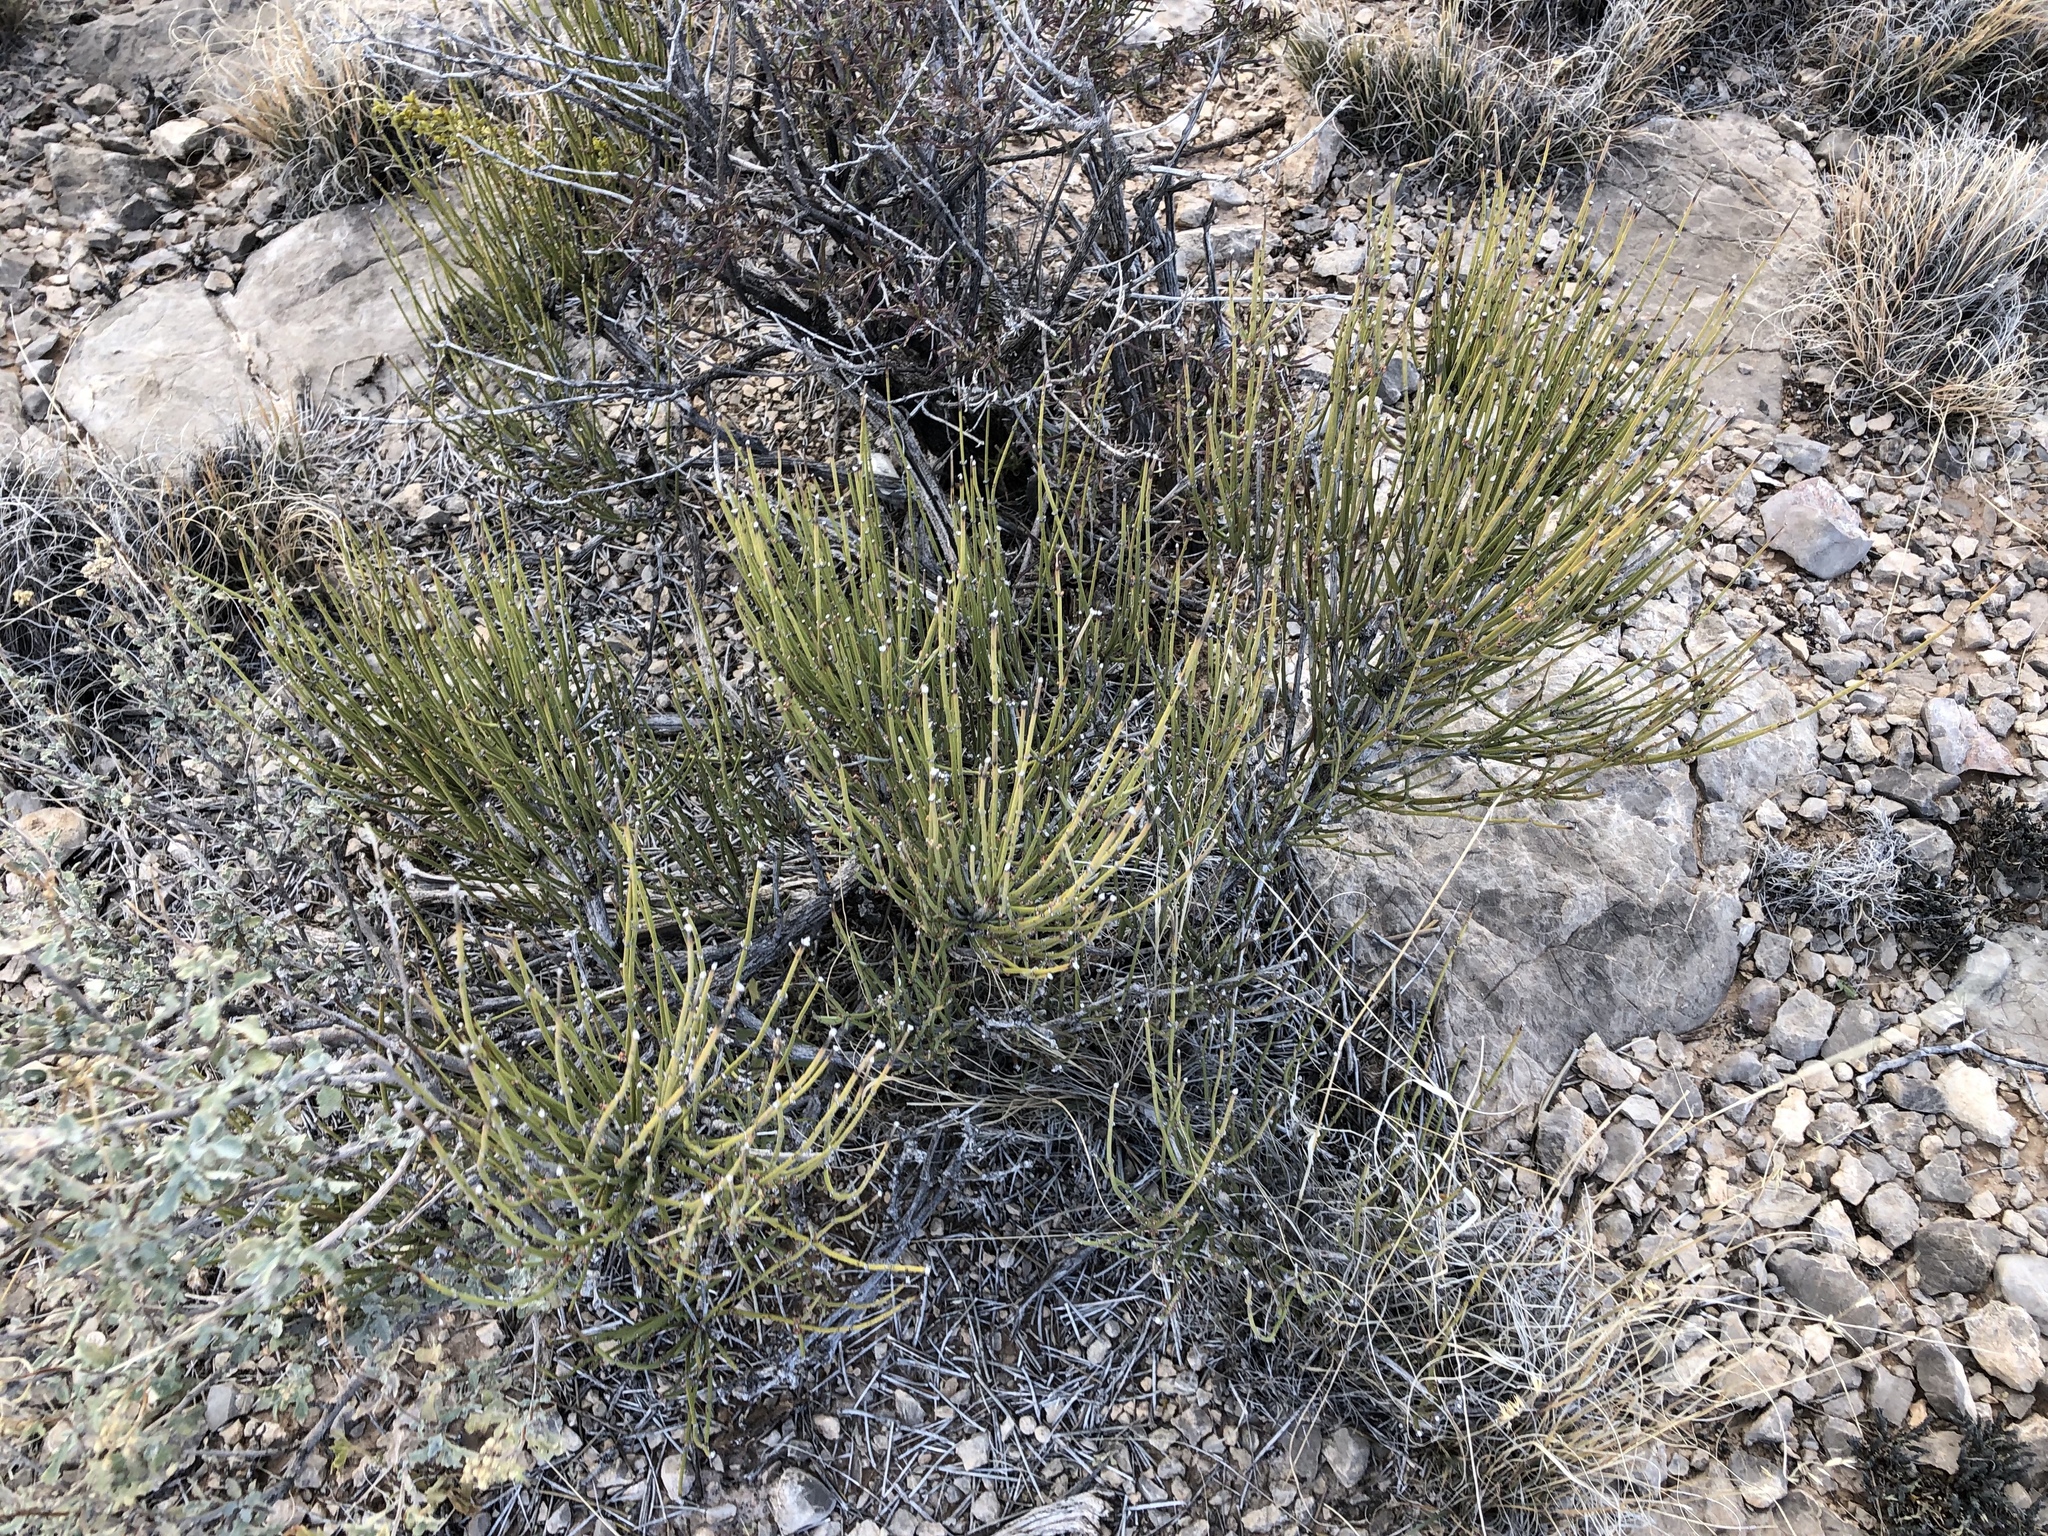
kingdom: Plantae
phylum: Tracheophyta
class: Gnetopsida
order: Ephedrales
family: Ephedraceae
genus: Ephedra
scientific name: Ephedra aspera
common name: Boundary ephedra
